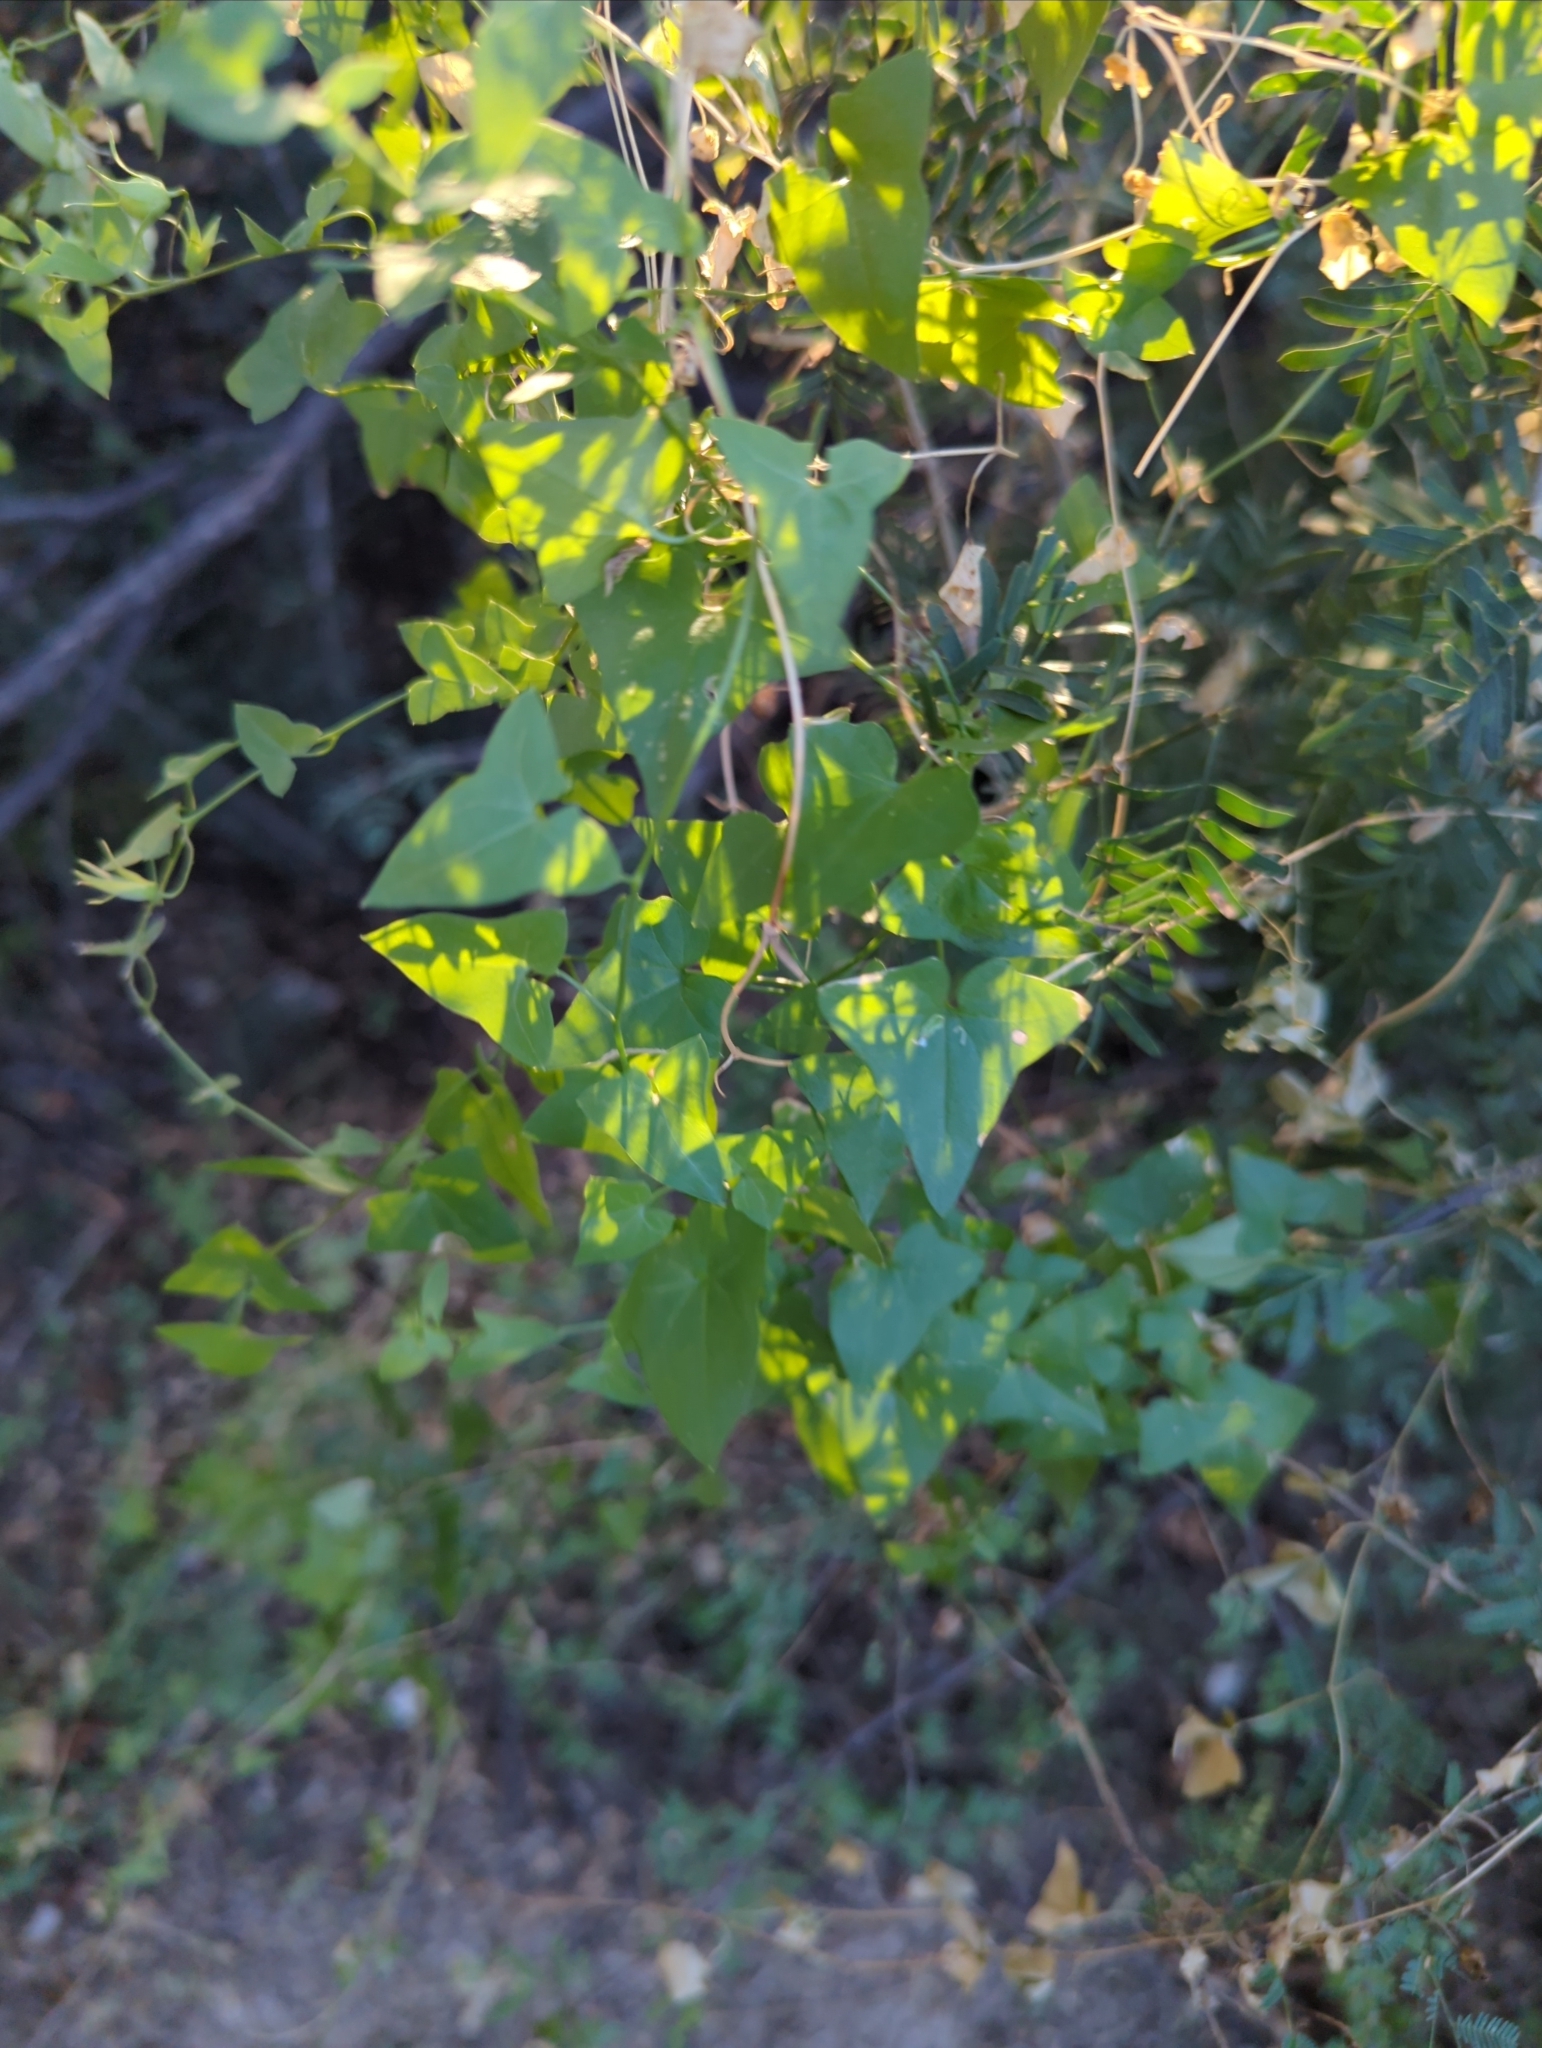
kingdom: Plantae
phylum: Tracheophyta
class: Magnoliopsida
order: Lamiales
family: Plantaginaceae
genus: Maurandella
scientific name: Maurandella antirrhiniflora
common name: Violet twining-snapdragon
